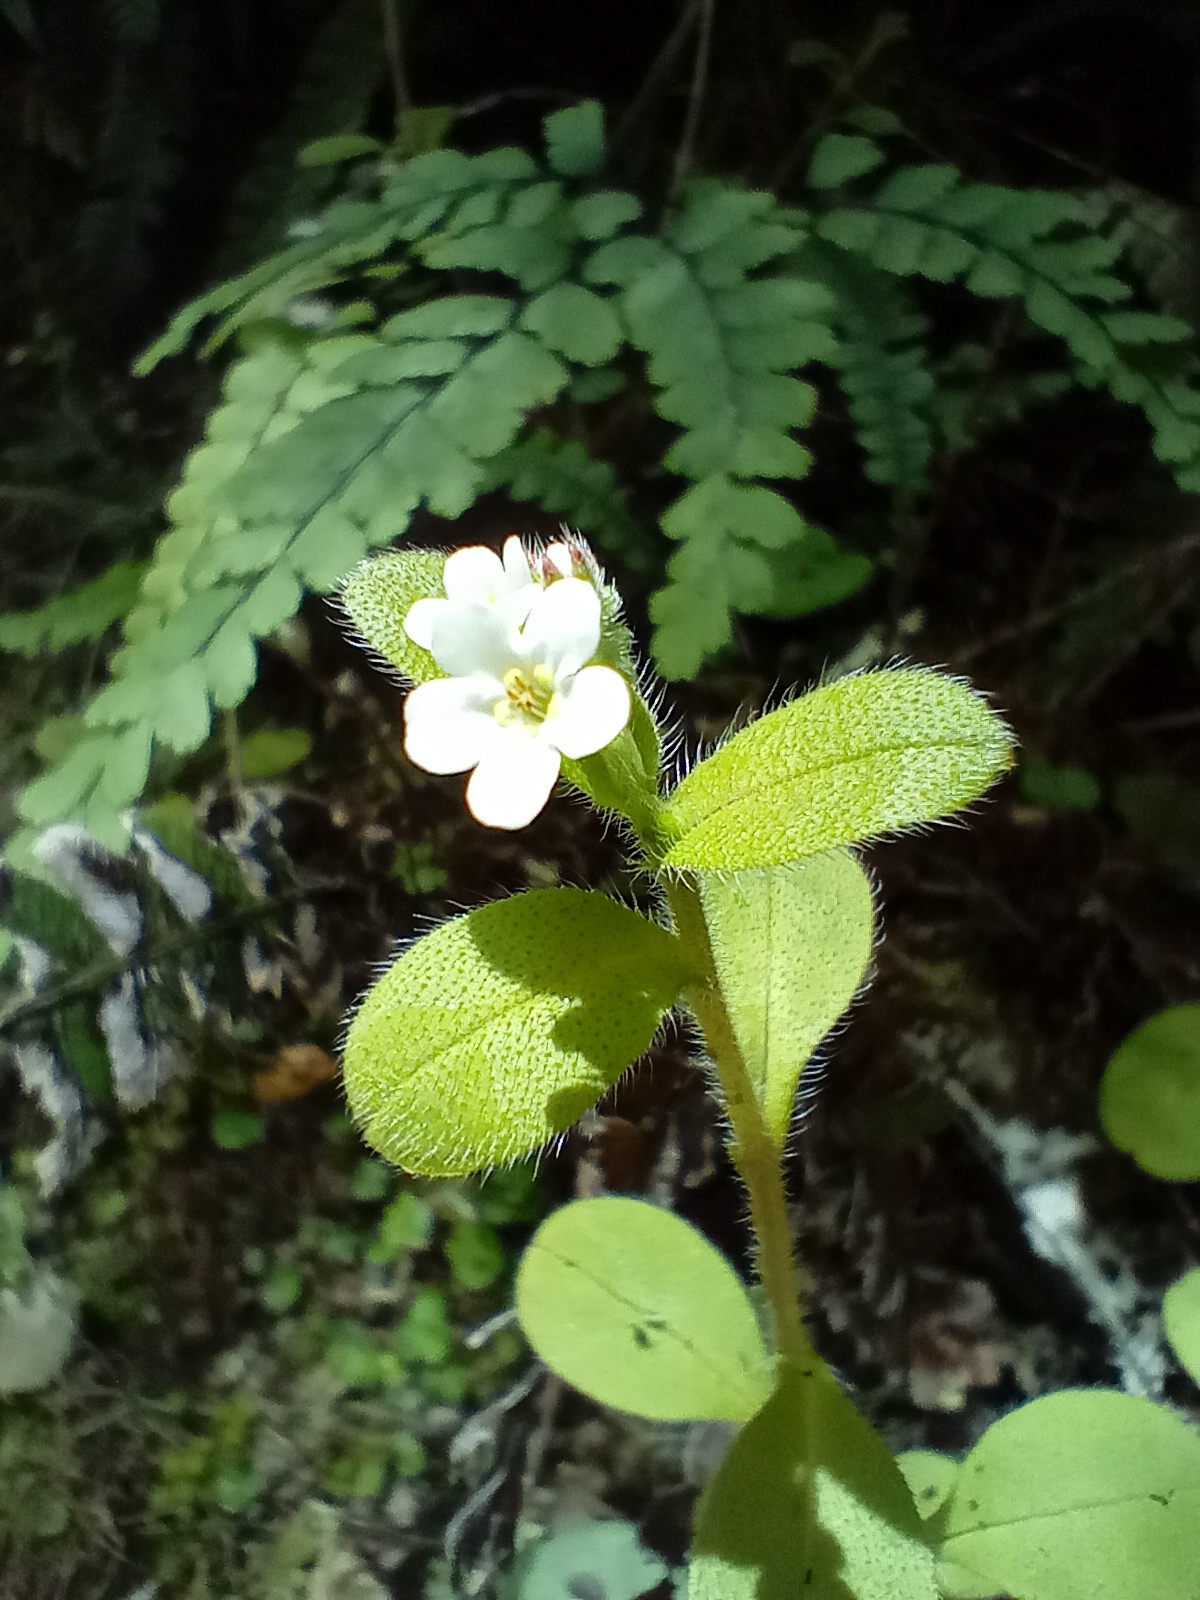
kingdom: Plantae
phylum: Tracheophyta
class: Magnoliopsida
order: Boraginales
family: Boraginaceae
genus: Myosotis
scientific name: Myosotis forsteri
